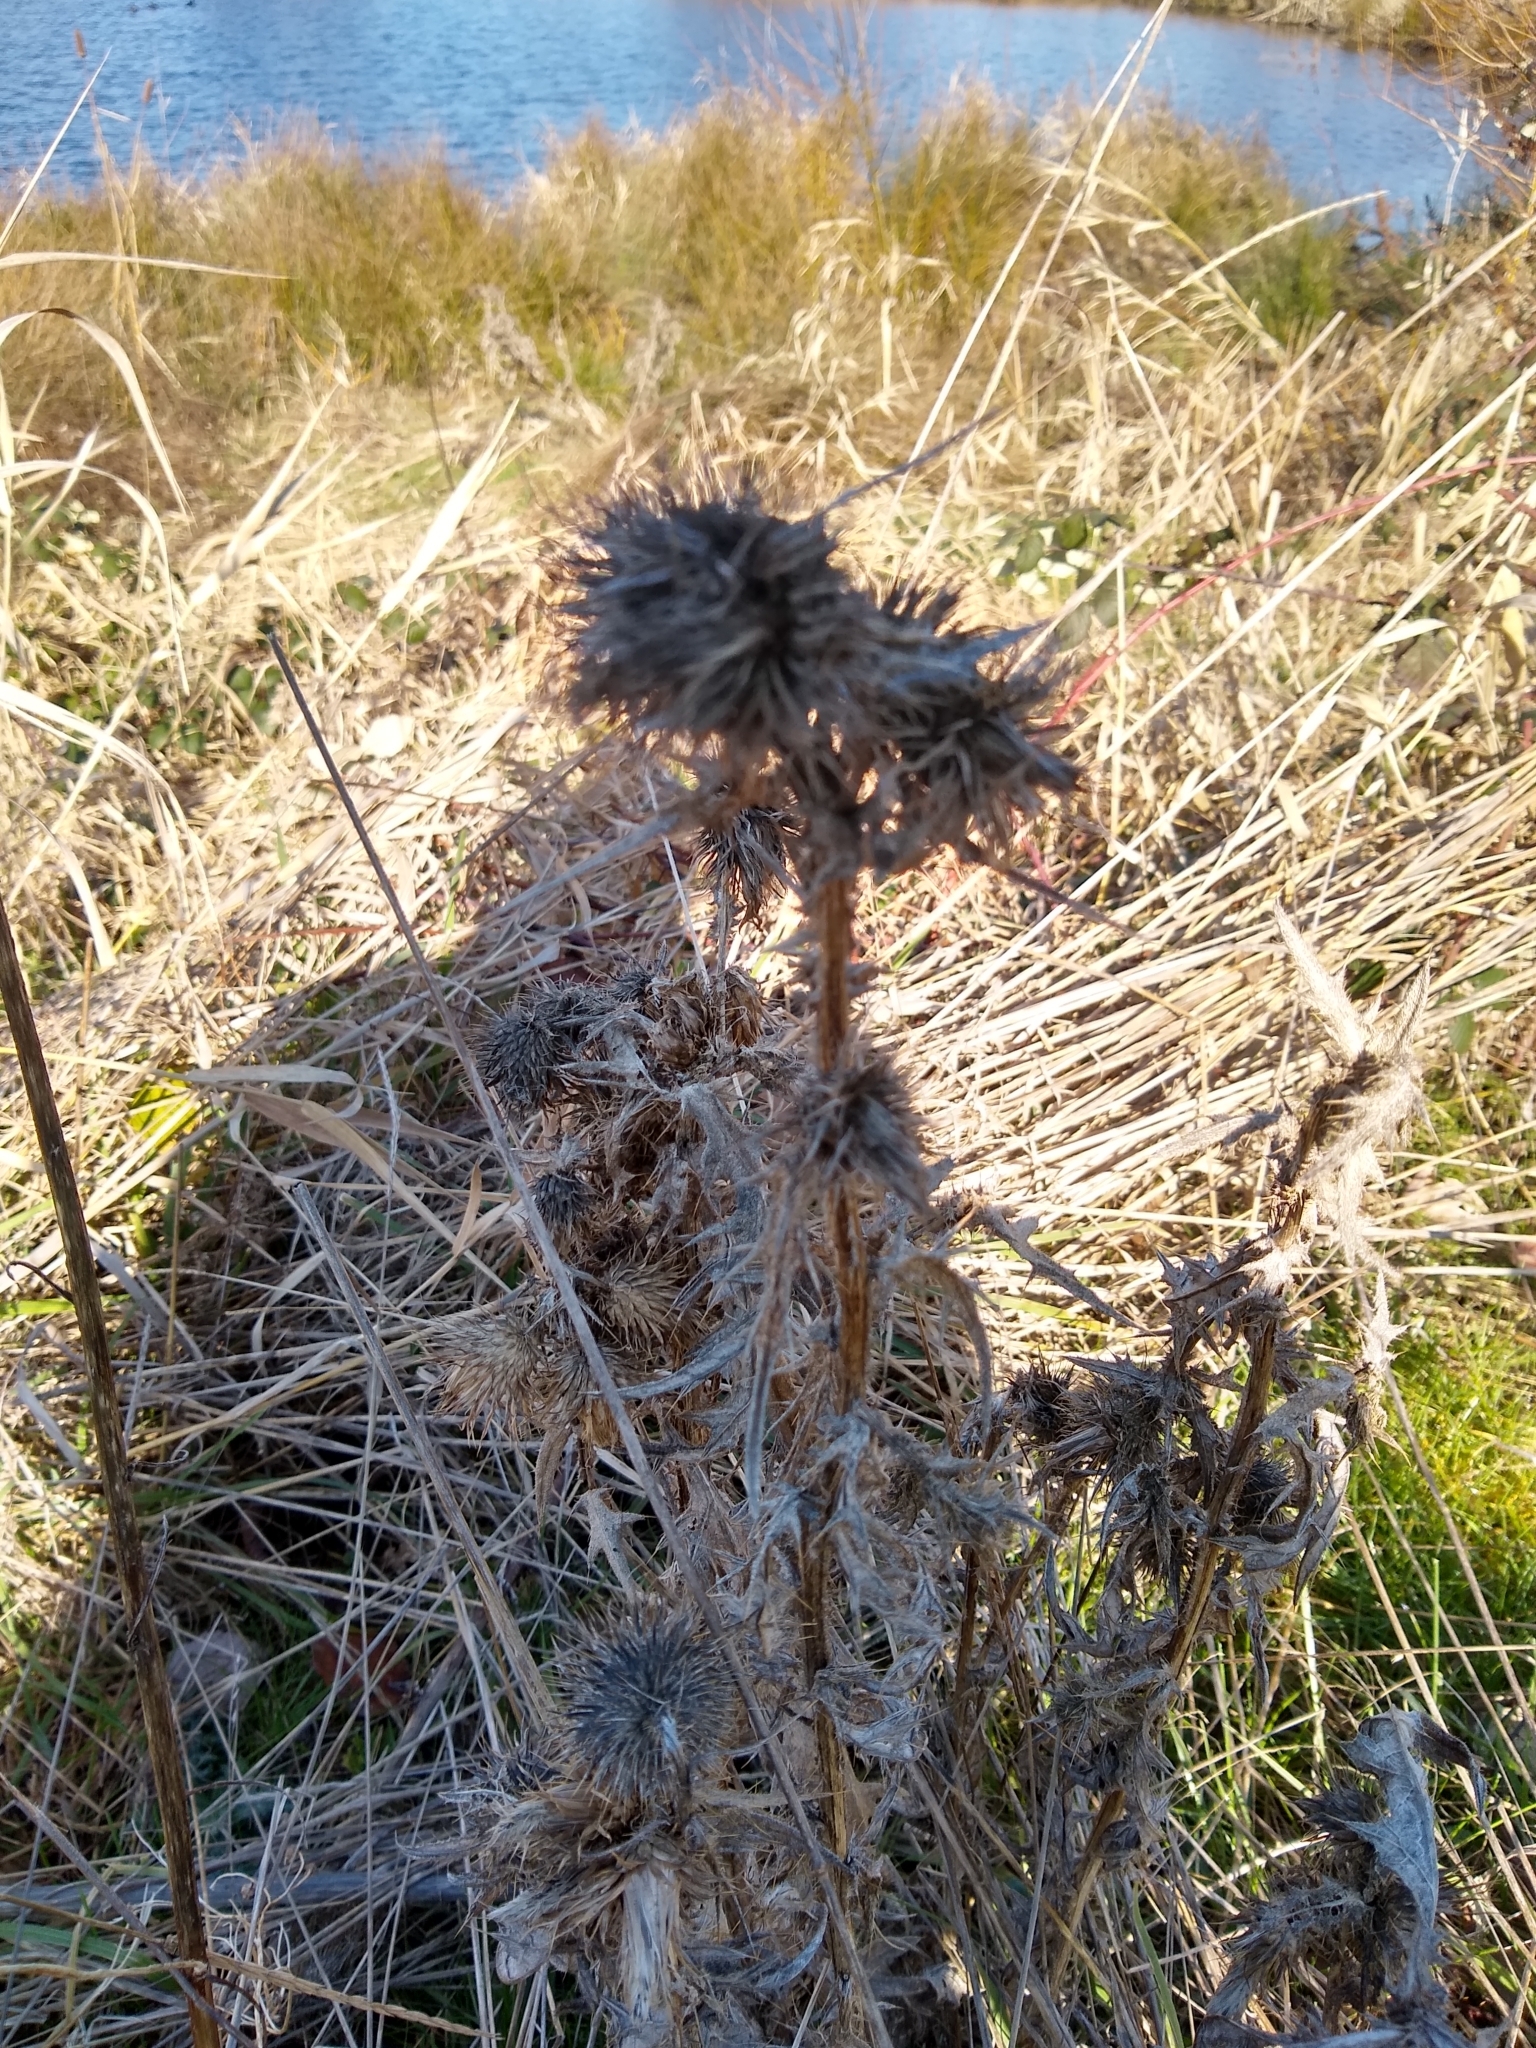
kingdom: Plantae
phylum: Tracheophyta
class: Magnoliopsida
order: Asterales
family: Asteraceae
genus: Cirsium
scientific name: Cirsium vulgare
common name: Bull thistle
